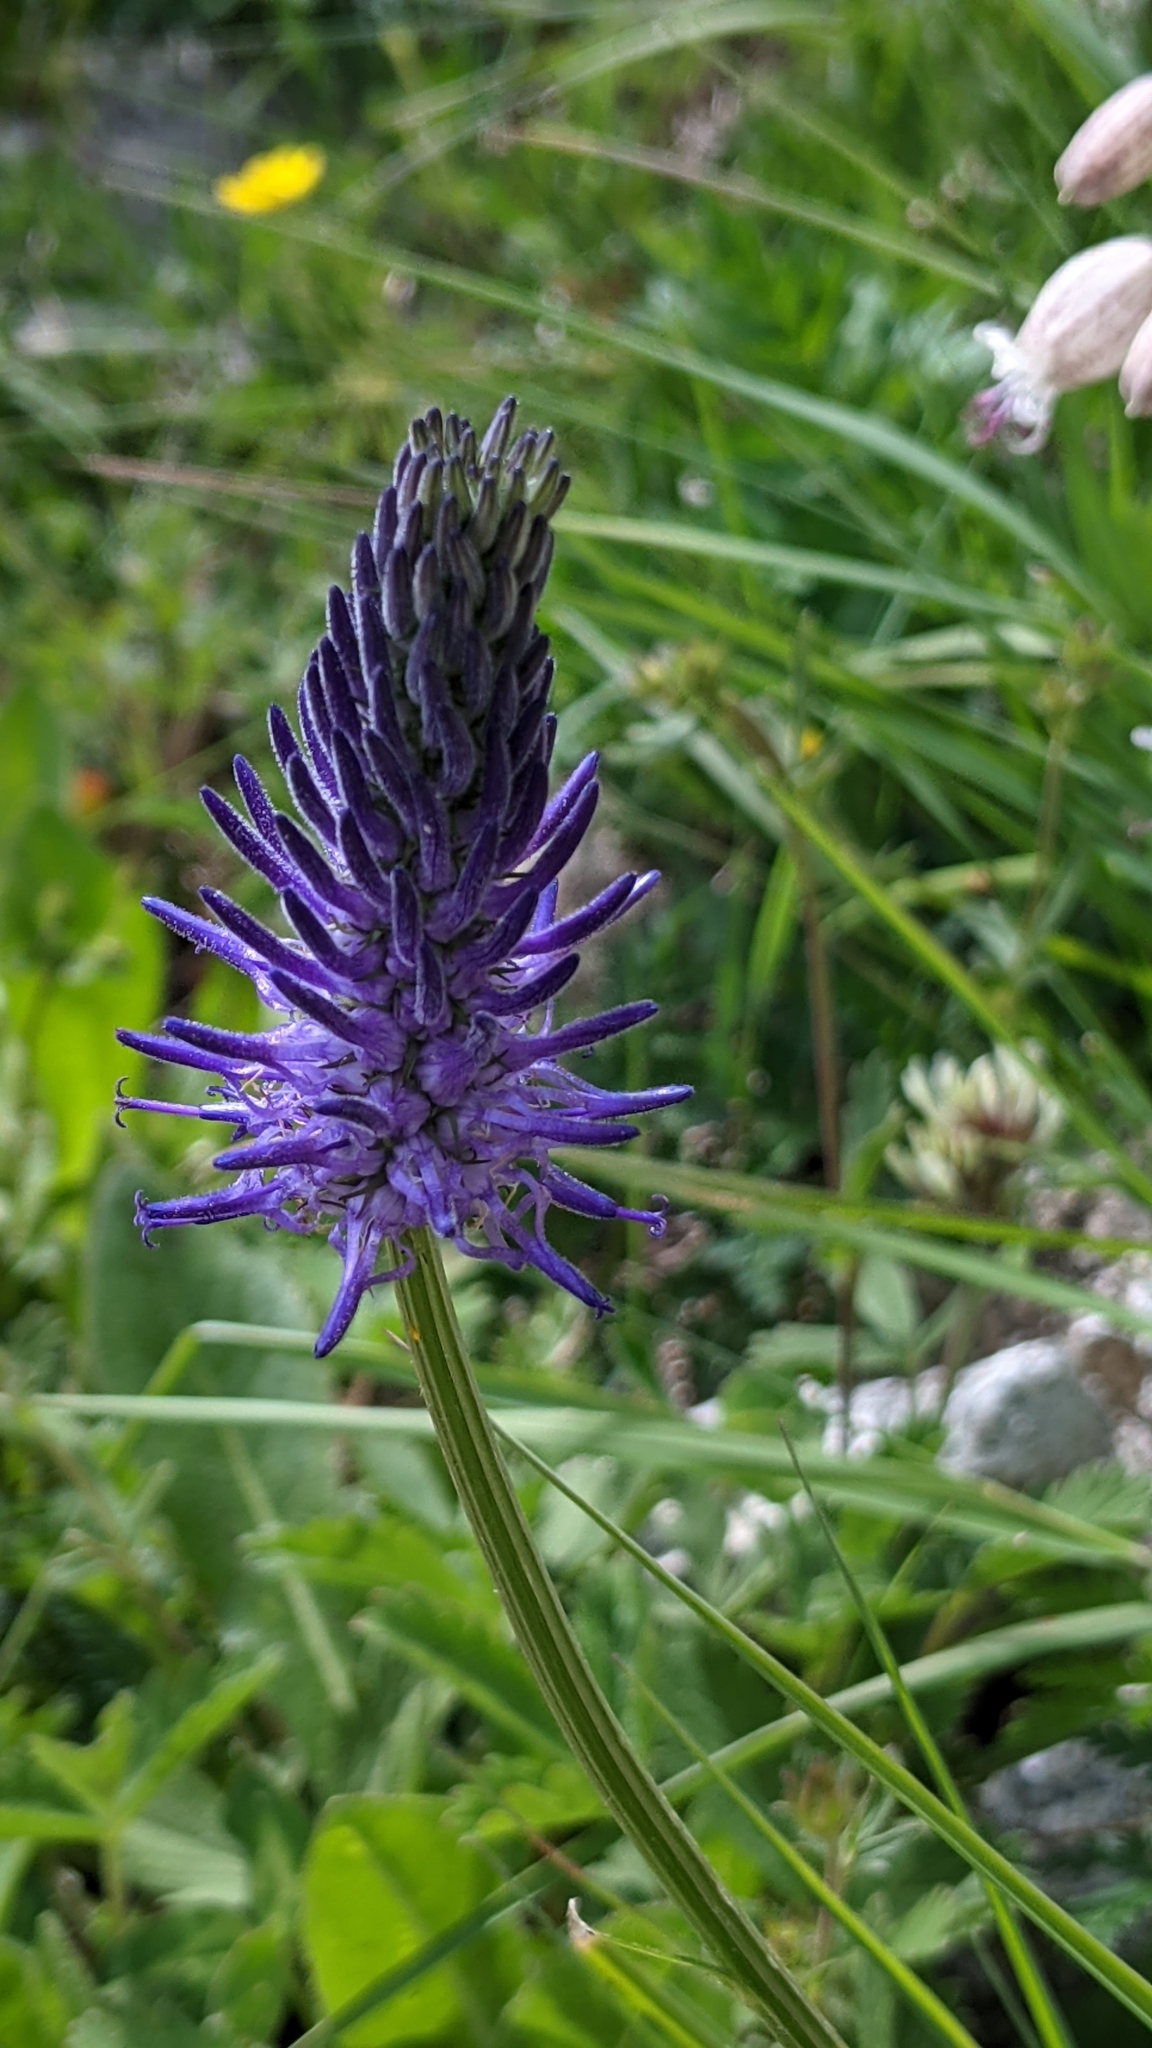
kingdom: Plantae
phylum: Tracheophyta
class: Magnoliopsida
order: Asterales
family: Campanulaceae
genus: Phyteuma
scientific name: Phyteuma betonicifolium
